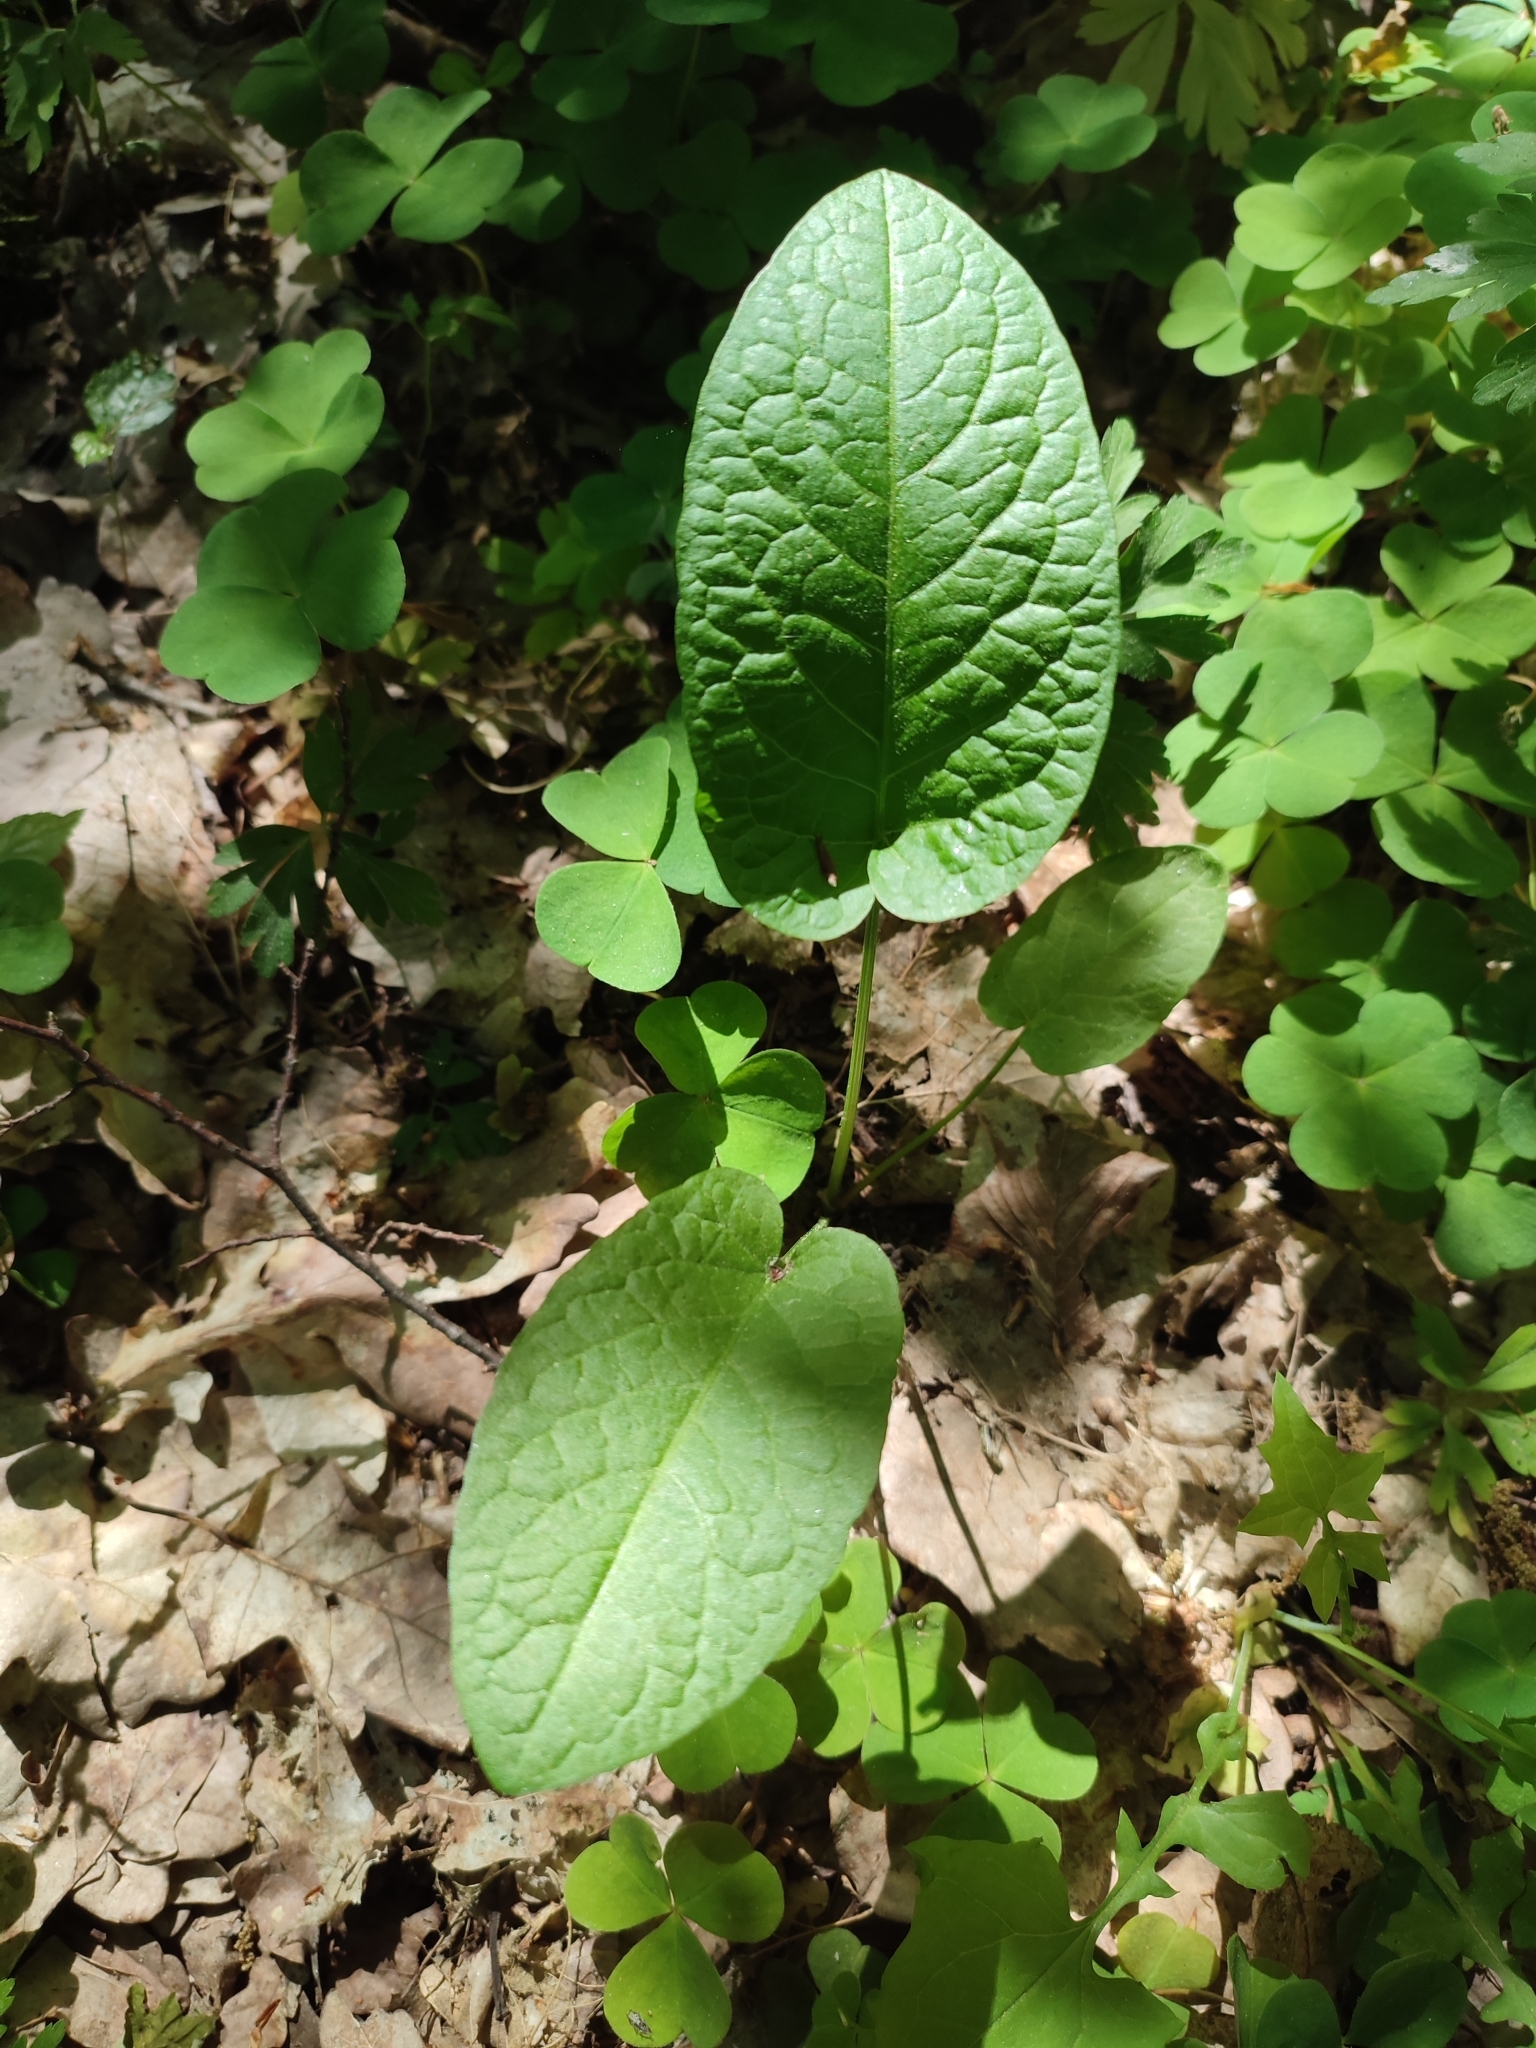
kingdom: Plantae
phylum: Tracheophyta
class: Magnoliopsida
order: Caryophyllales
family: Polygonaceae
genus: Rumex
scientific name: Rumex obtusifolius
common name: Bitter dock
